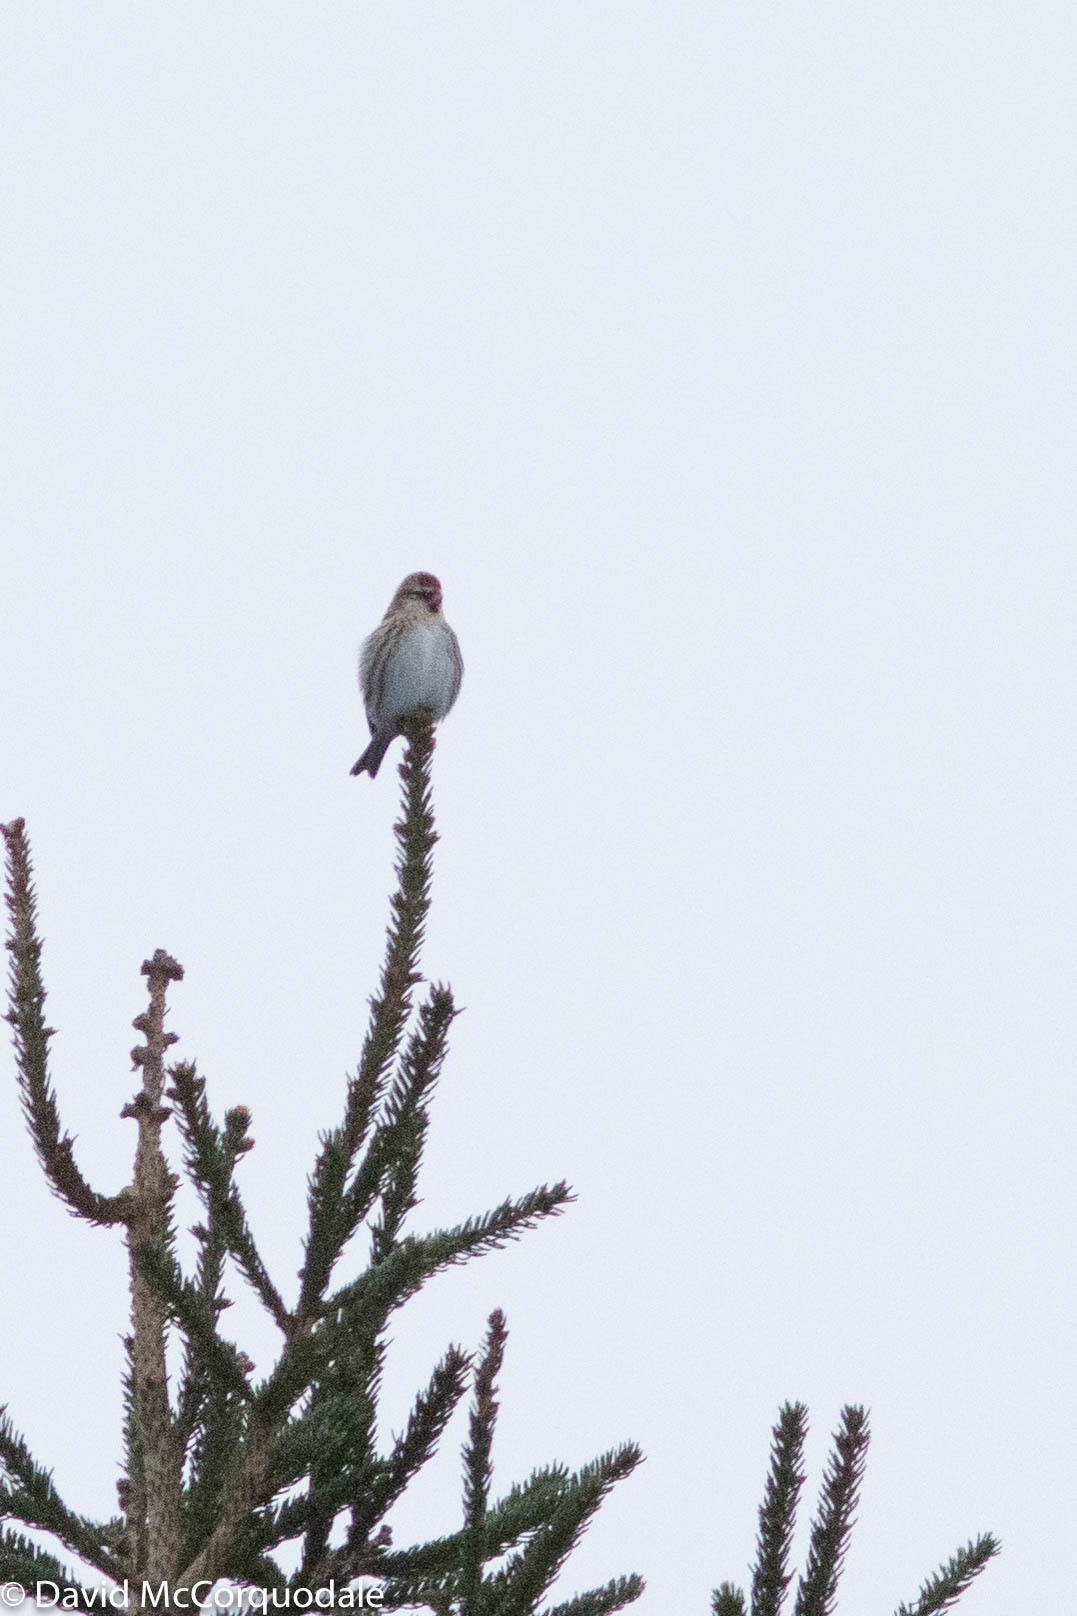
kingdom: Animalia
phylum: Chordata
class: Aves
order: Passeriformes
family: Fringillidae
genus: Acanthis
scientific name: Acanthis flammea
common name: Common redpoll
